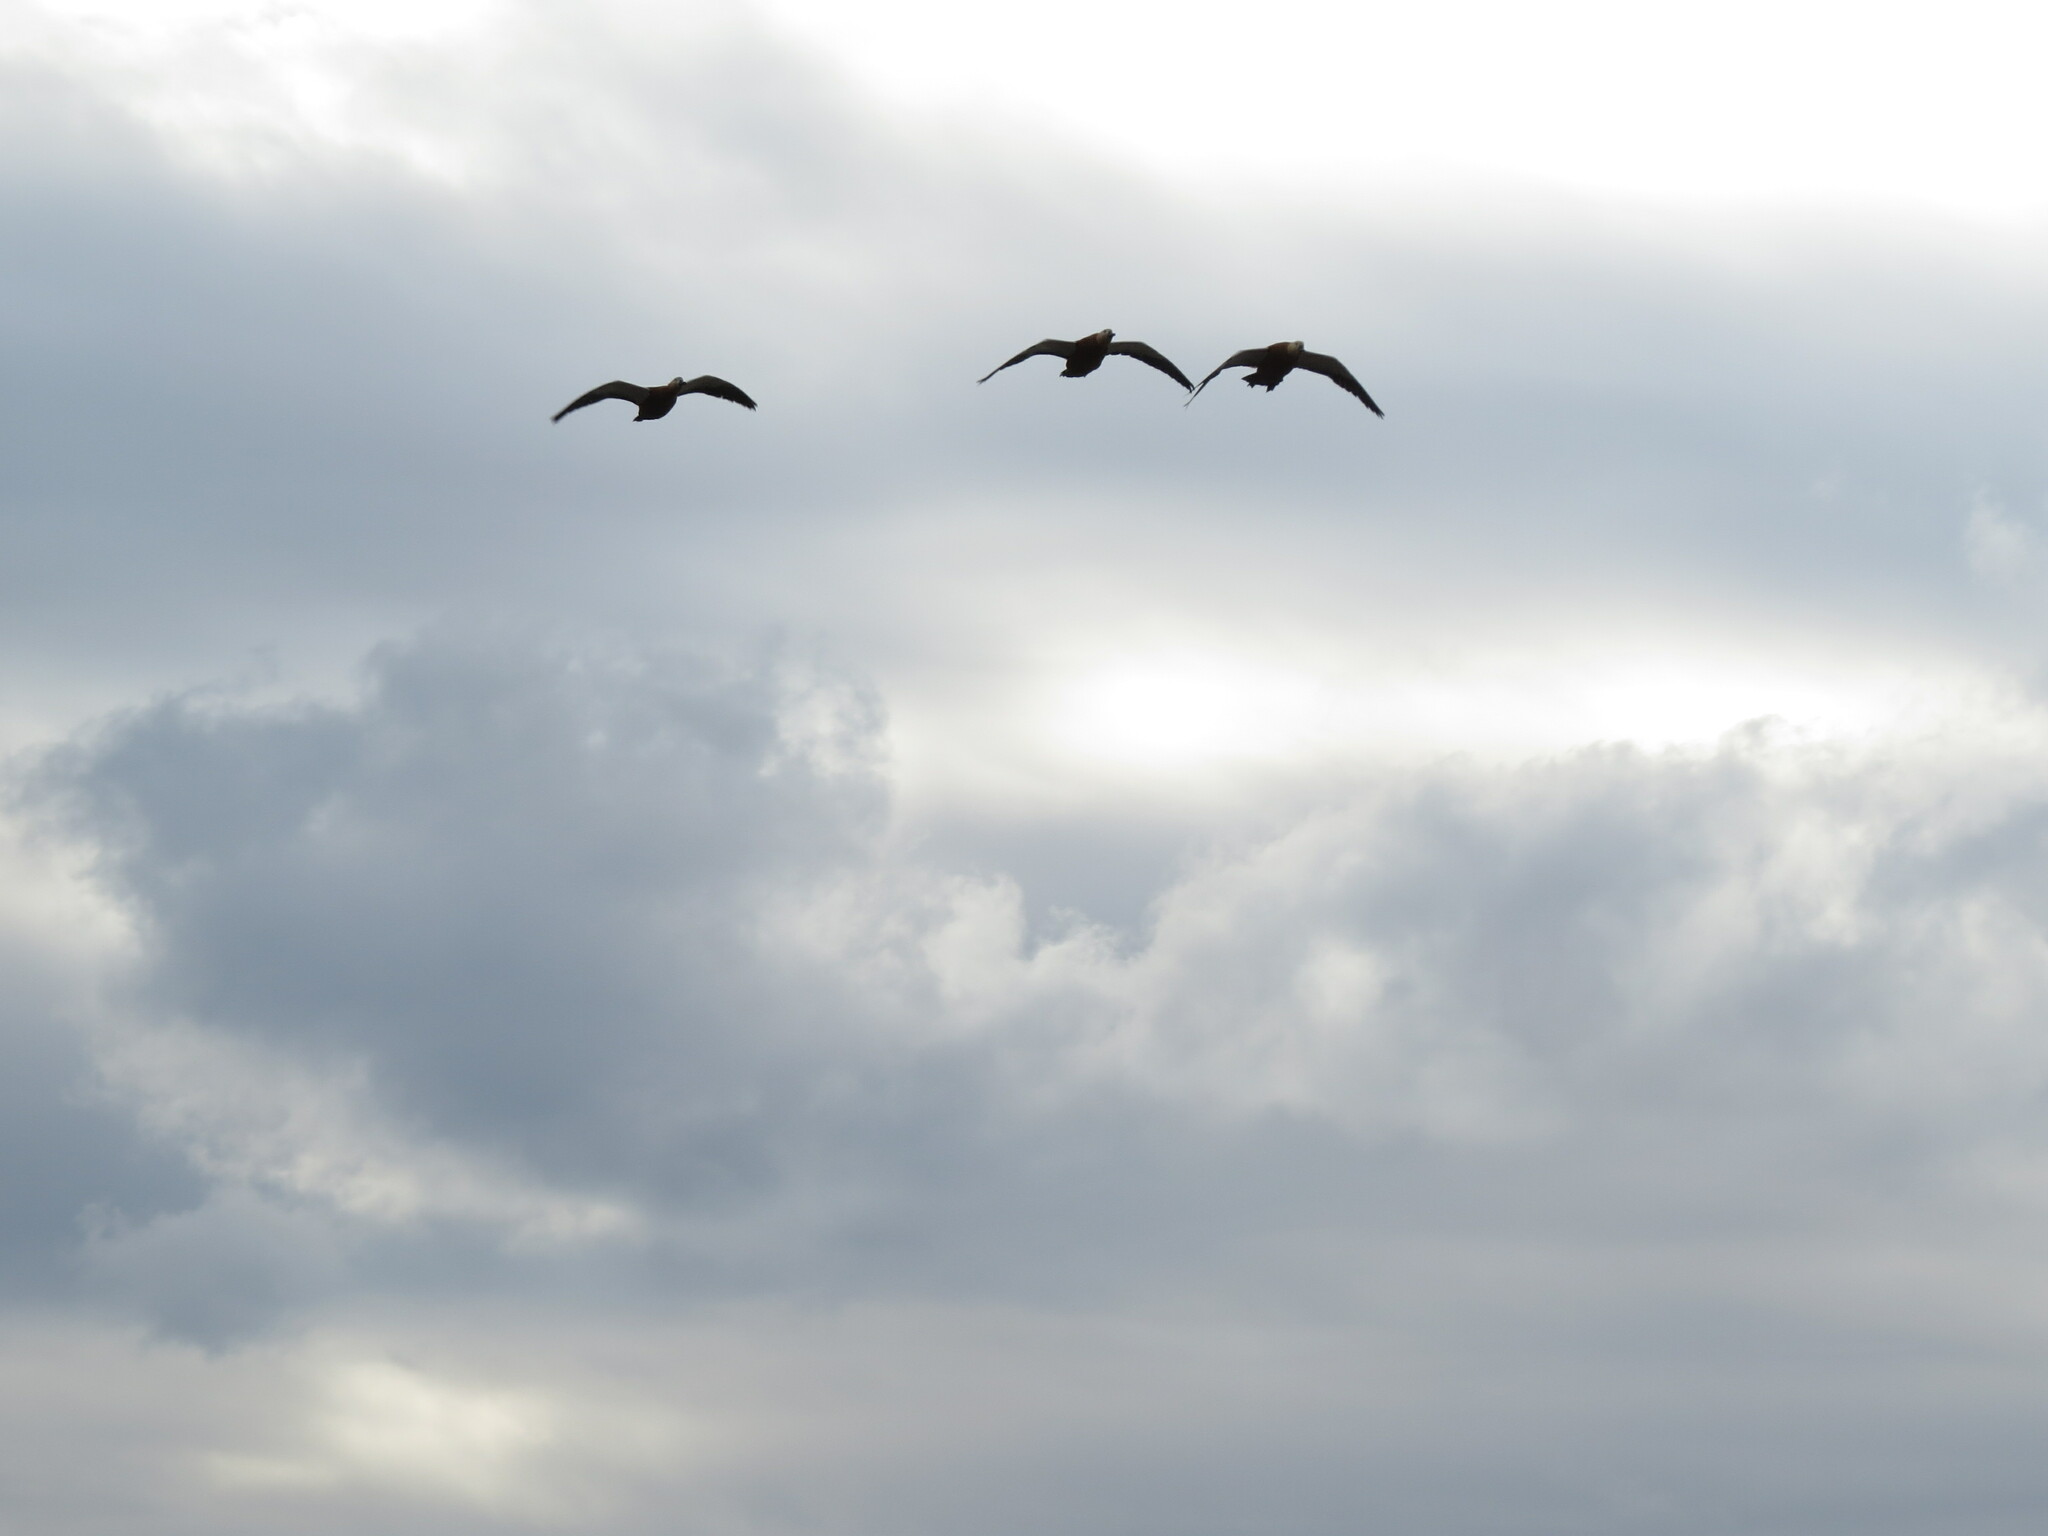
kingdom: Animalia
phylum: Chordata
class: Aves
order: Anseriformes
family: Anatidae
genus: Tadorna
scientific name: Tadorna ferruginea
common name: Ruddy shelduck
